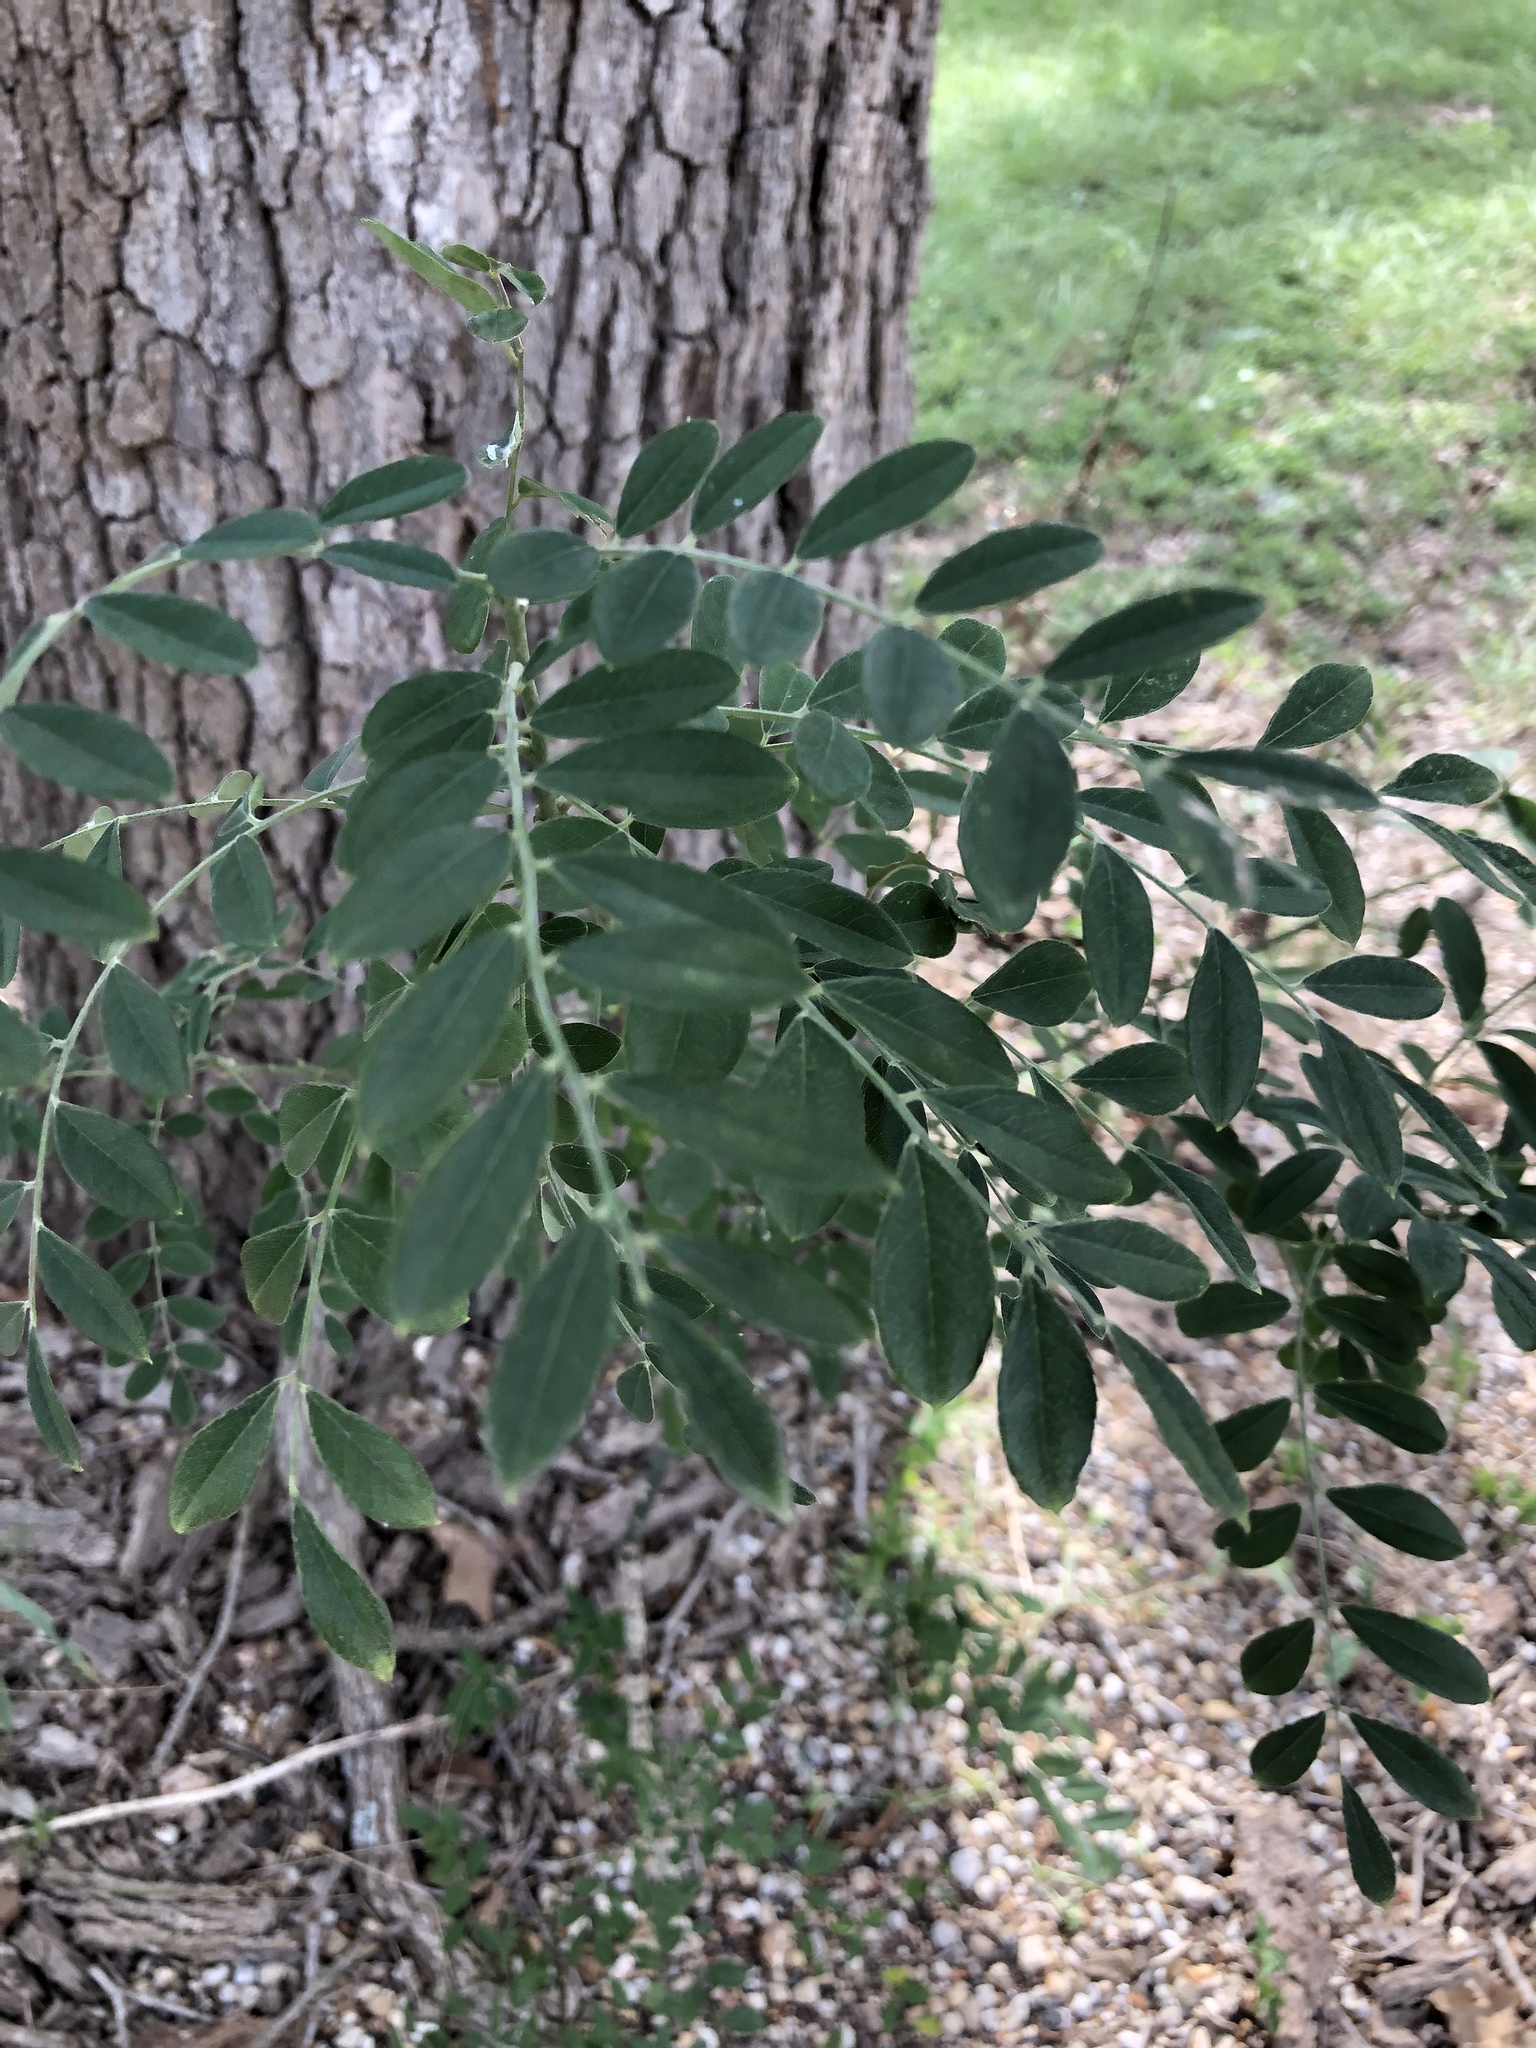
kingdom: Plantae
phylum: Tracheophyta
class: Magnoliopsida
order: Fabales
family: Fabaceae
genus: Styphnolobium
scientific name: Styphnolobium affine
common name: Texas sophora
